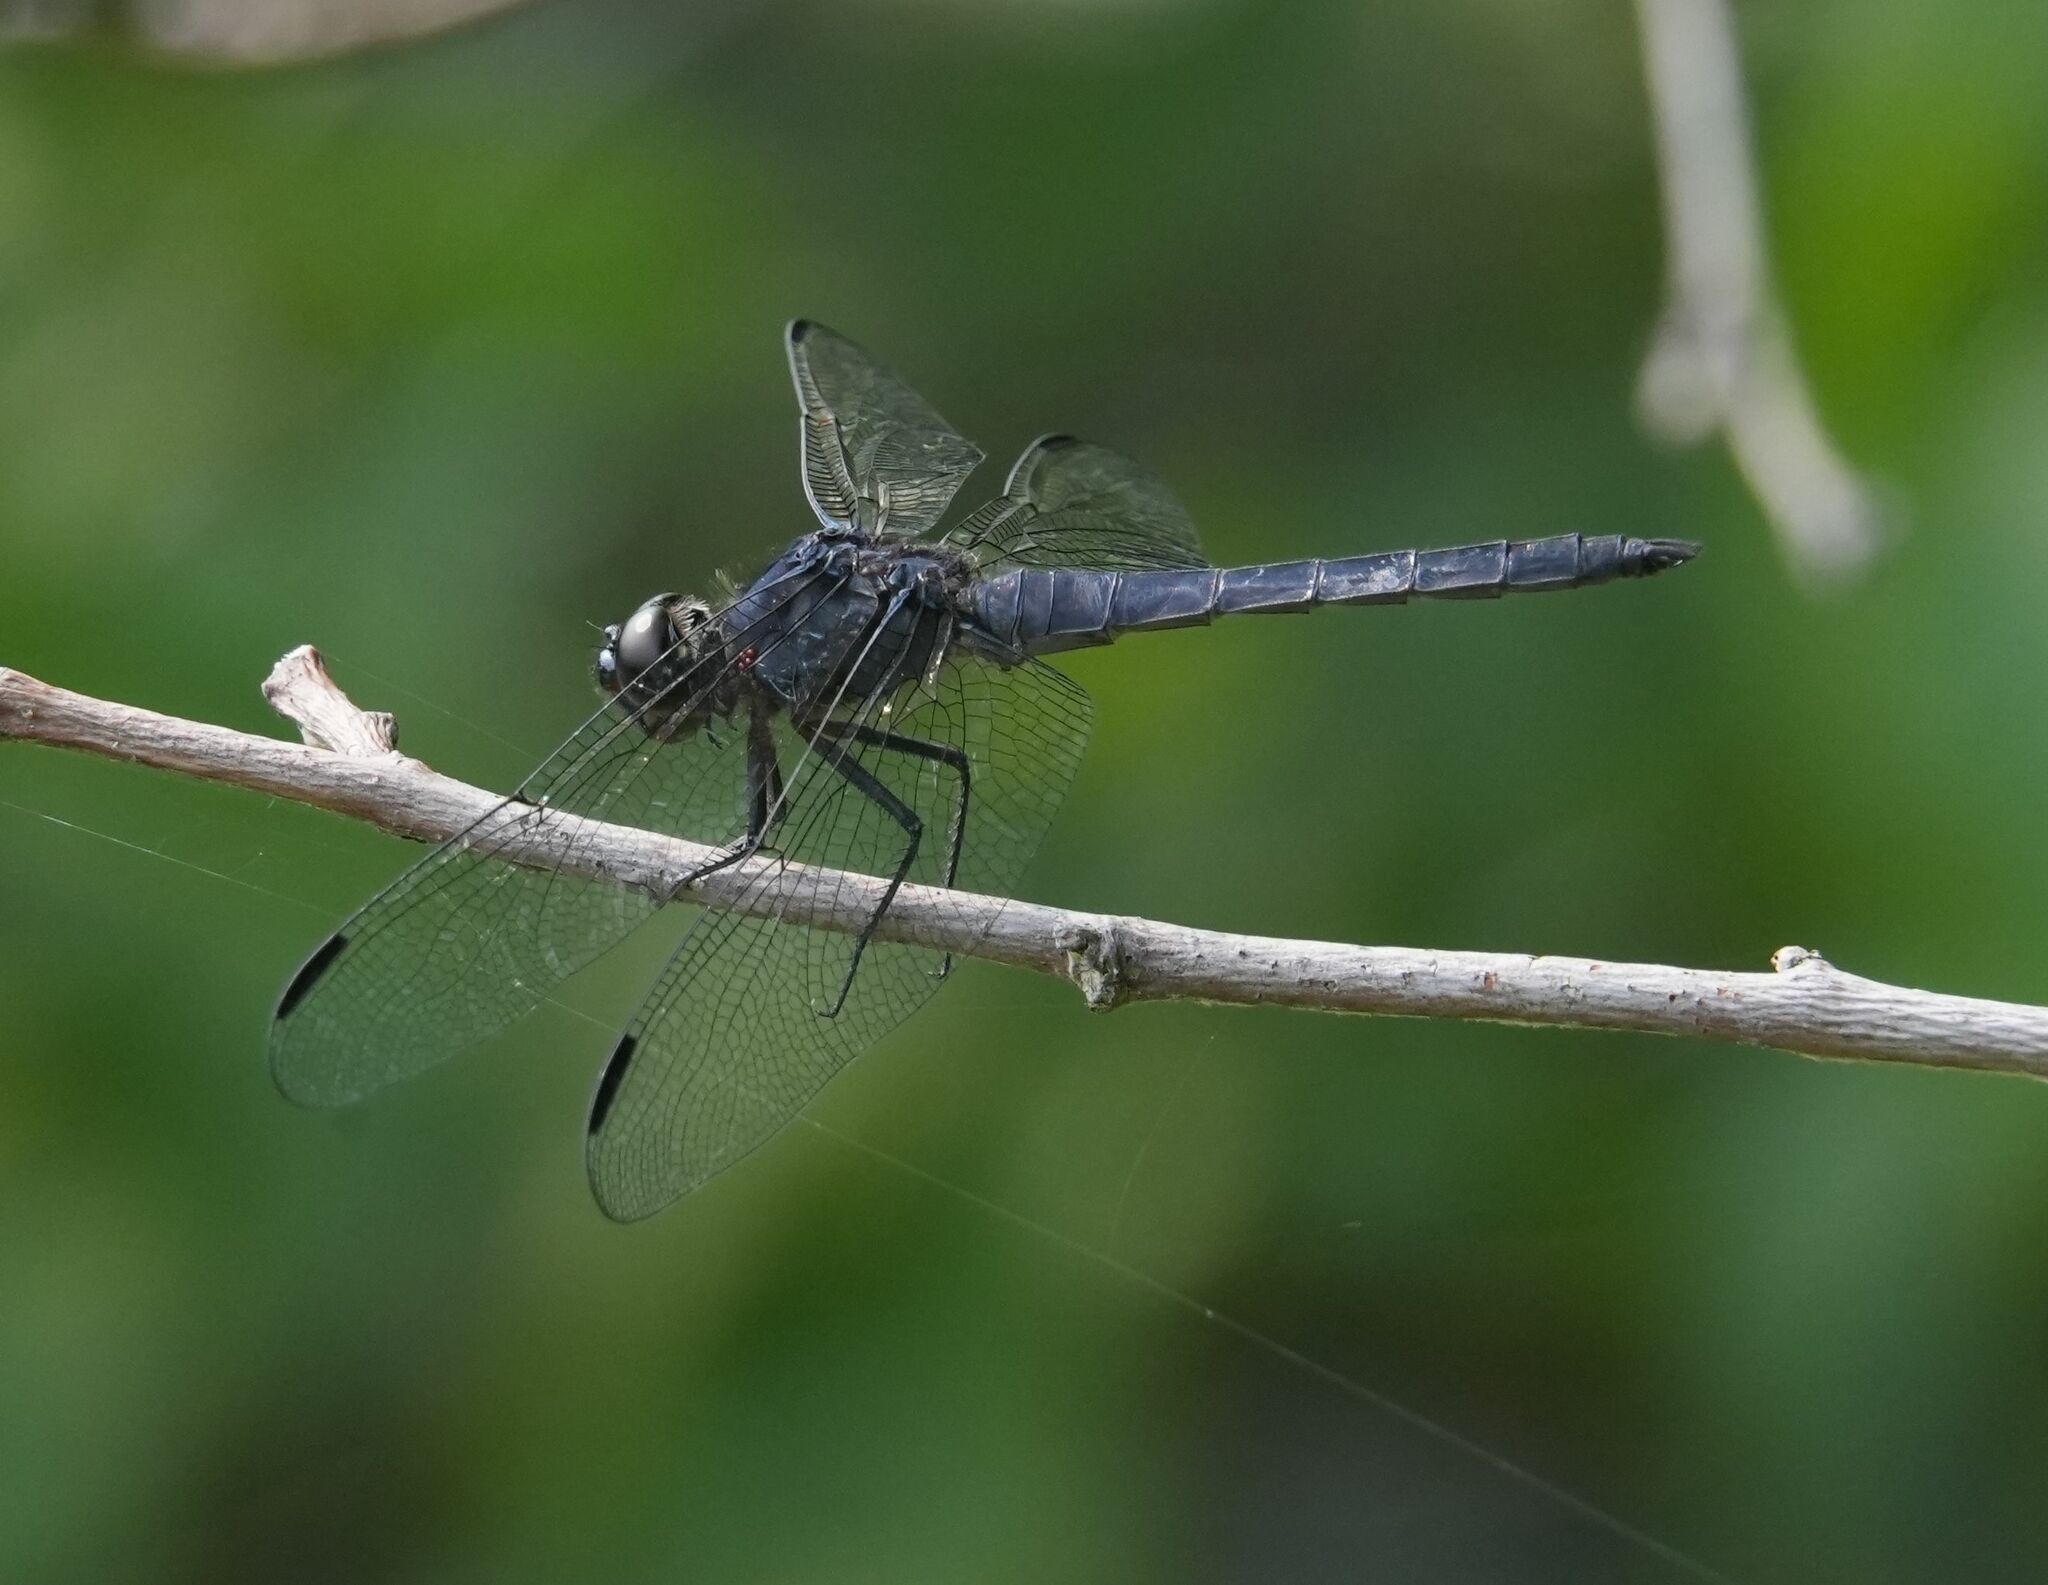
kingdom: Animalia
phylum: Arthropoda
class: Insecta
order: Odonata
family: Libellulidae
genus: Libellula
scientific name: Libellula incesta
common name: Slaty skimmer
